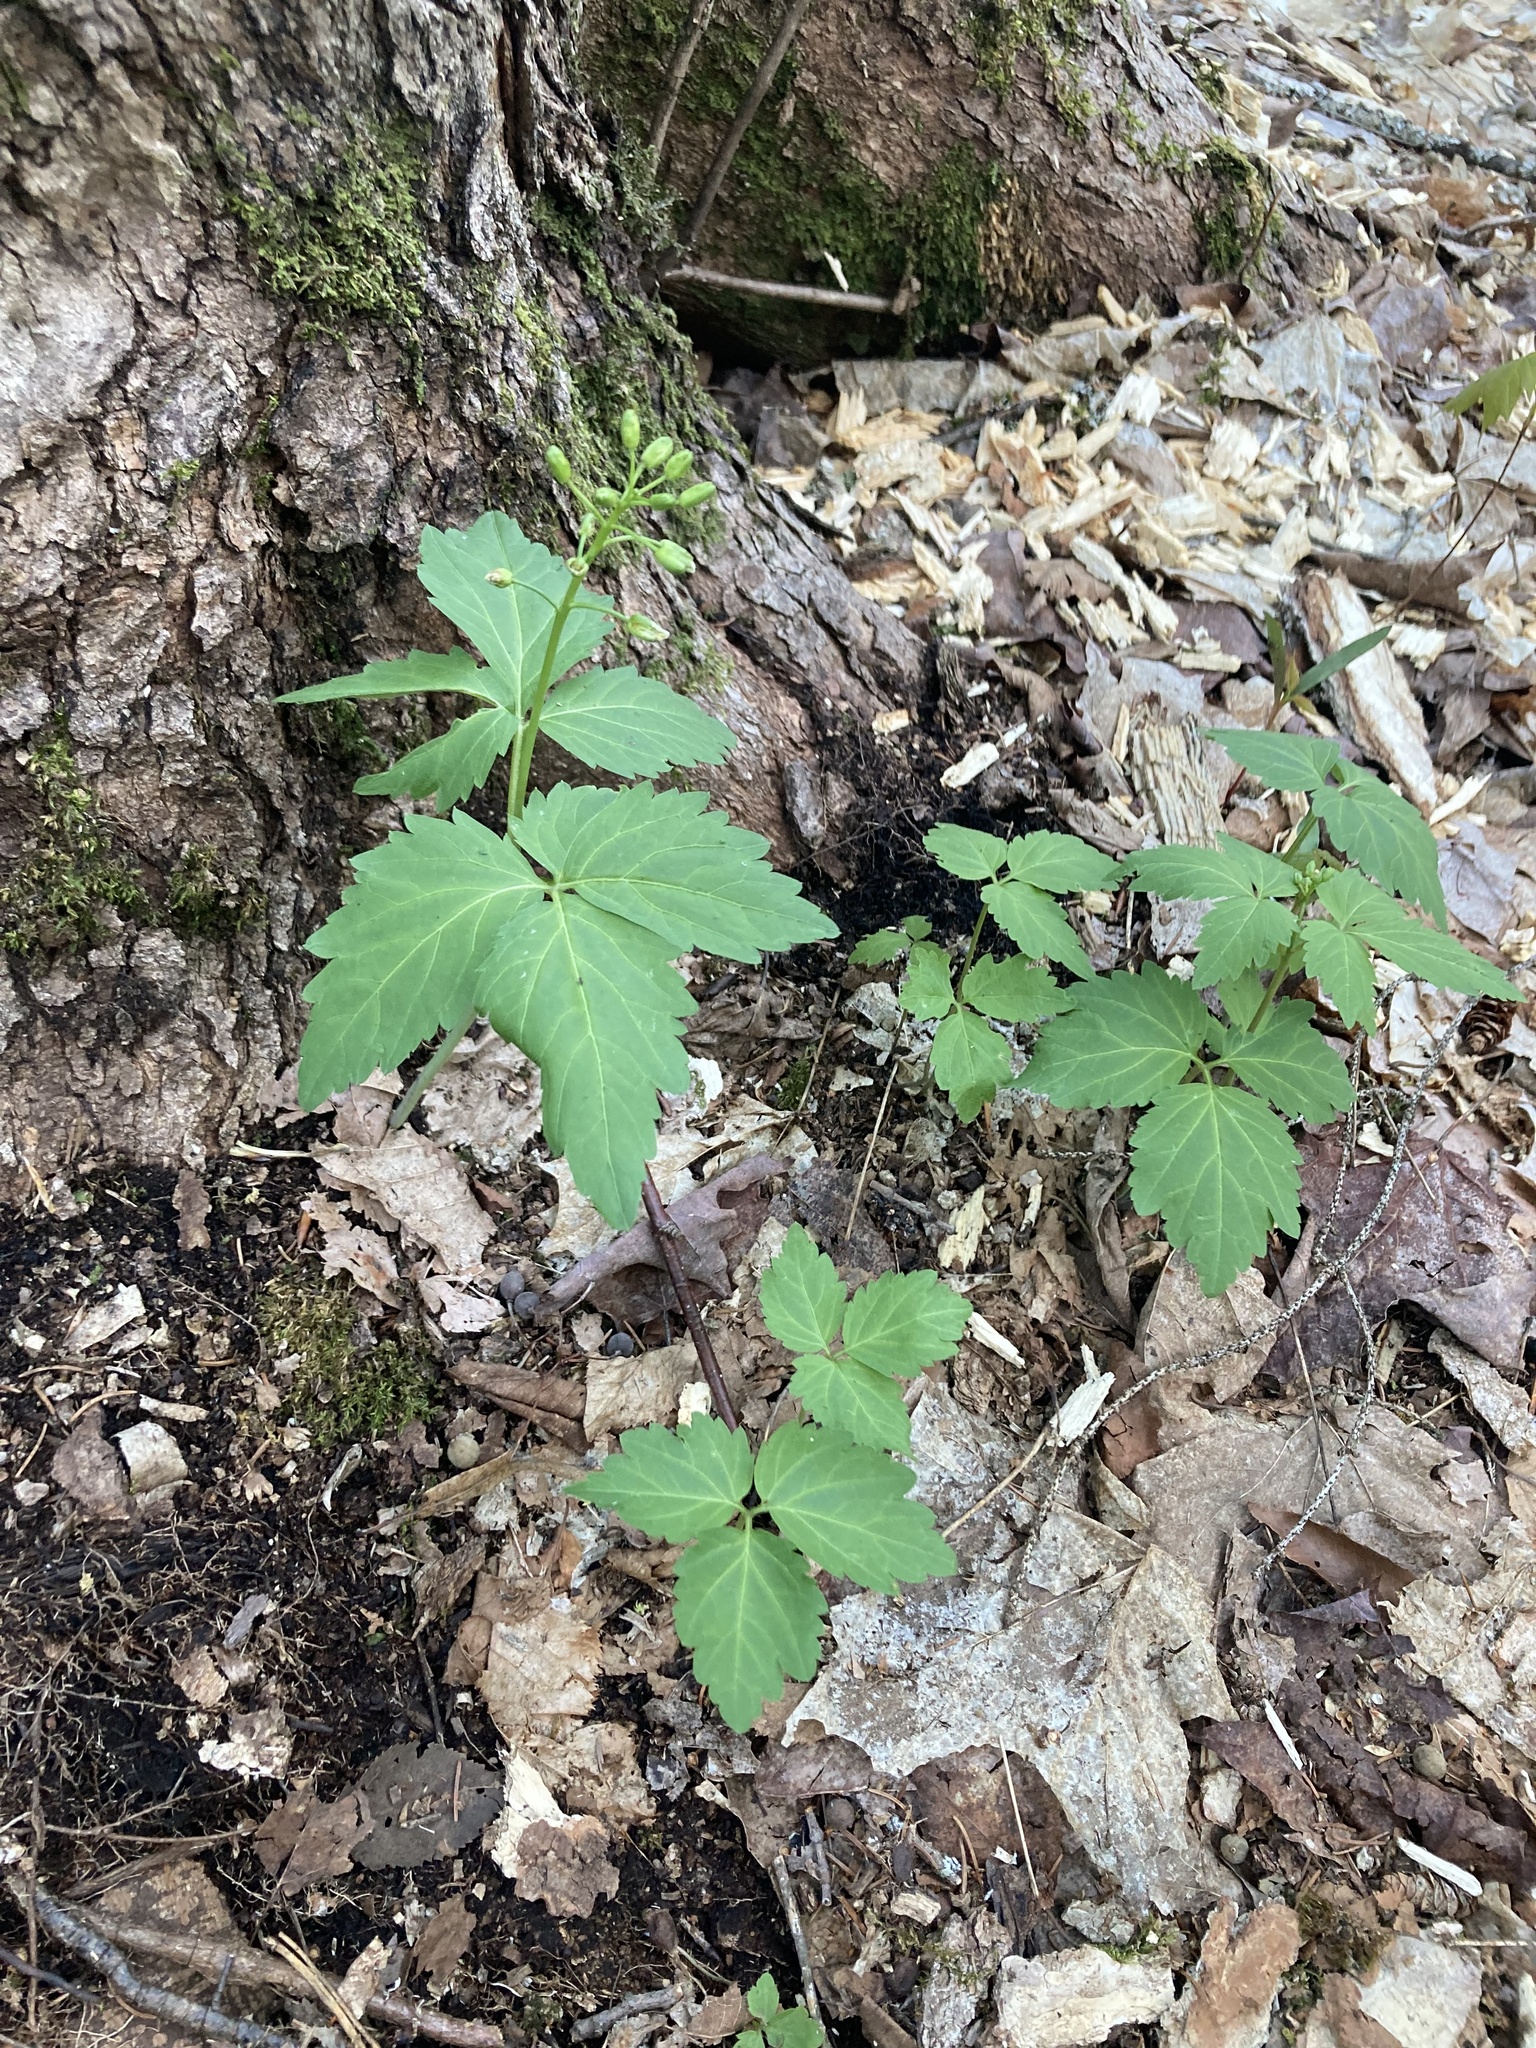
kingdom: Plantae
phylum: Tracheophyta
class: Magnoliopsida
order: Brassicales
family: Brassicaceae
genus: Cardamine
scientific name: Cardamine diphylla
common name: Broad-leaved toothwort
